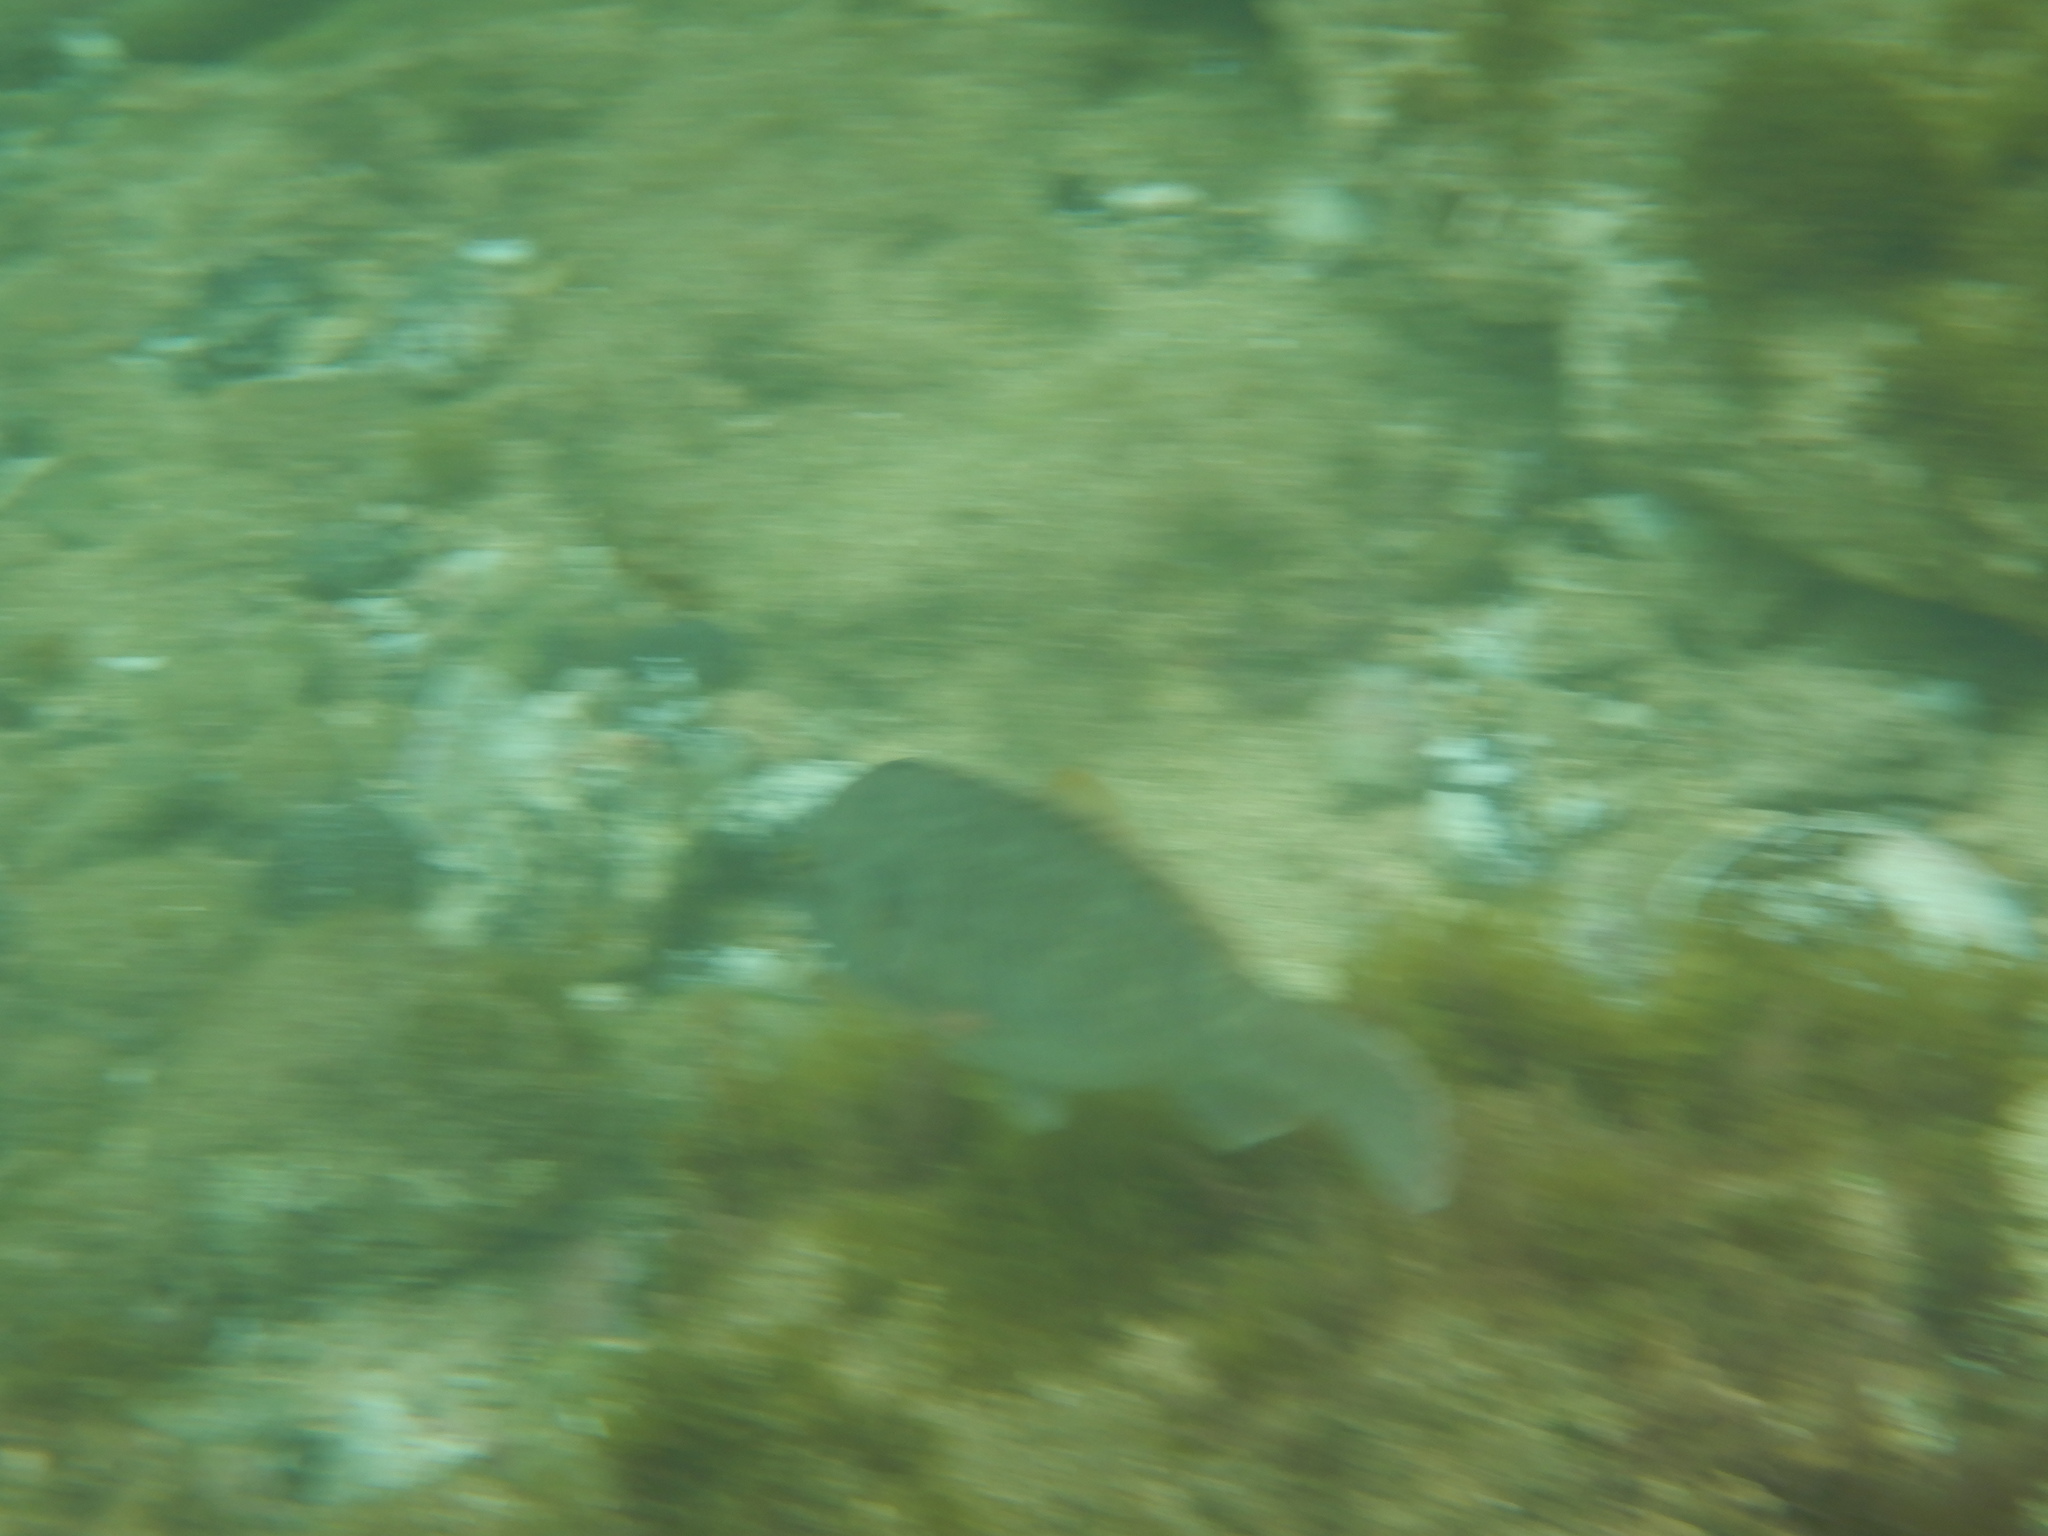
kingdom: Animalia
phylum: Chordata
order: Perciformes
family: Scaridae
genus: Sparisoma
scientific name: Sparisoma cretense
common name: Parrotfish
